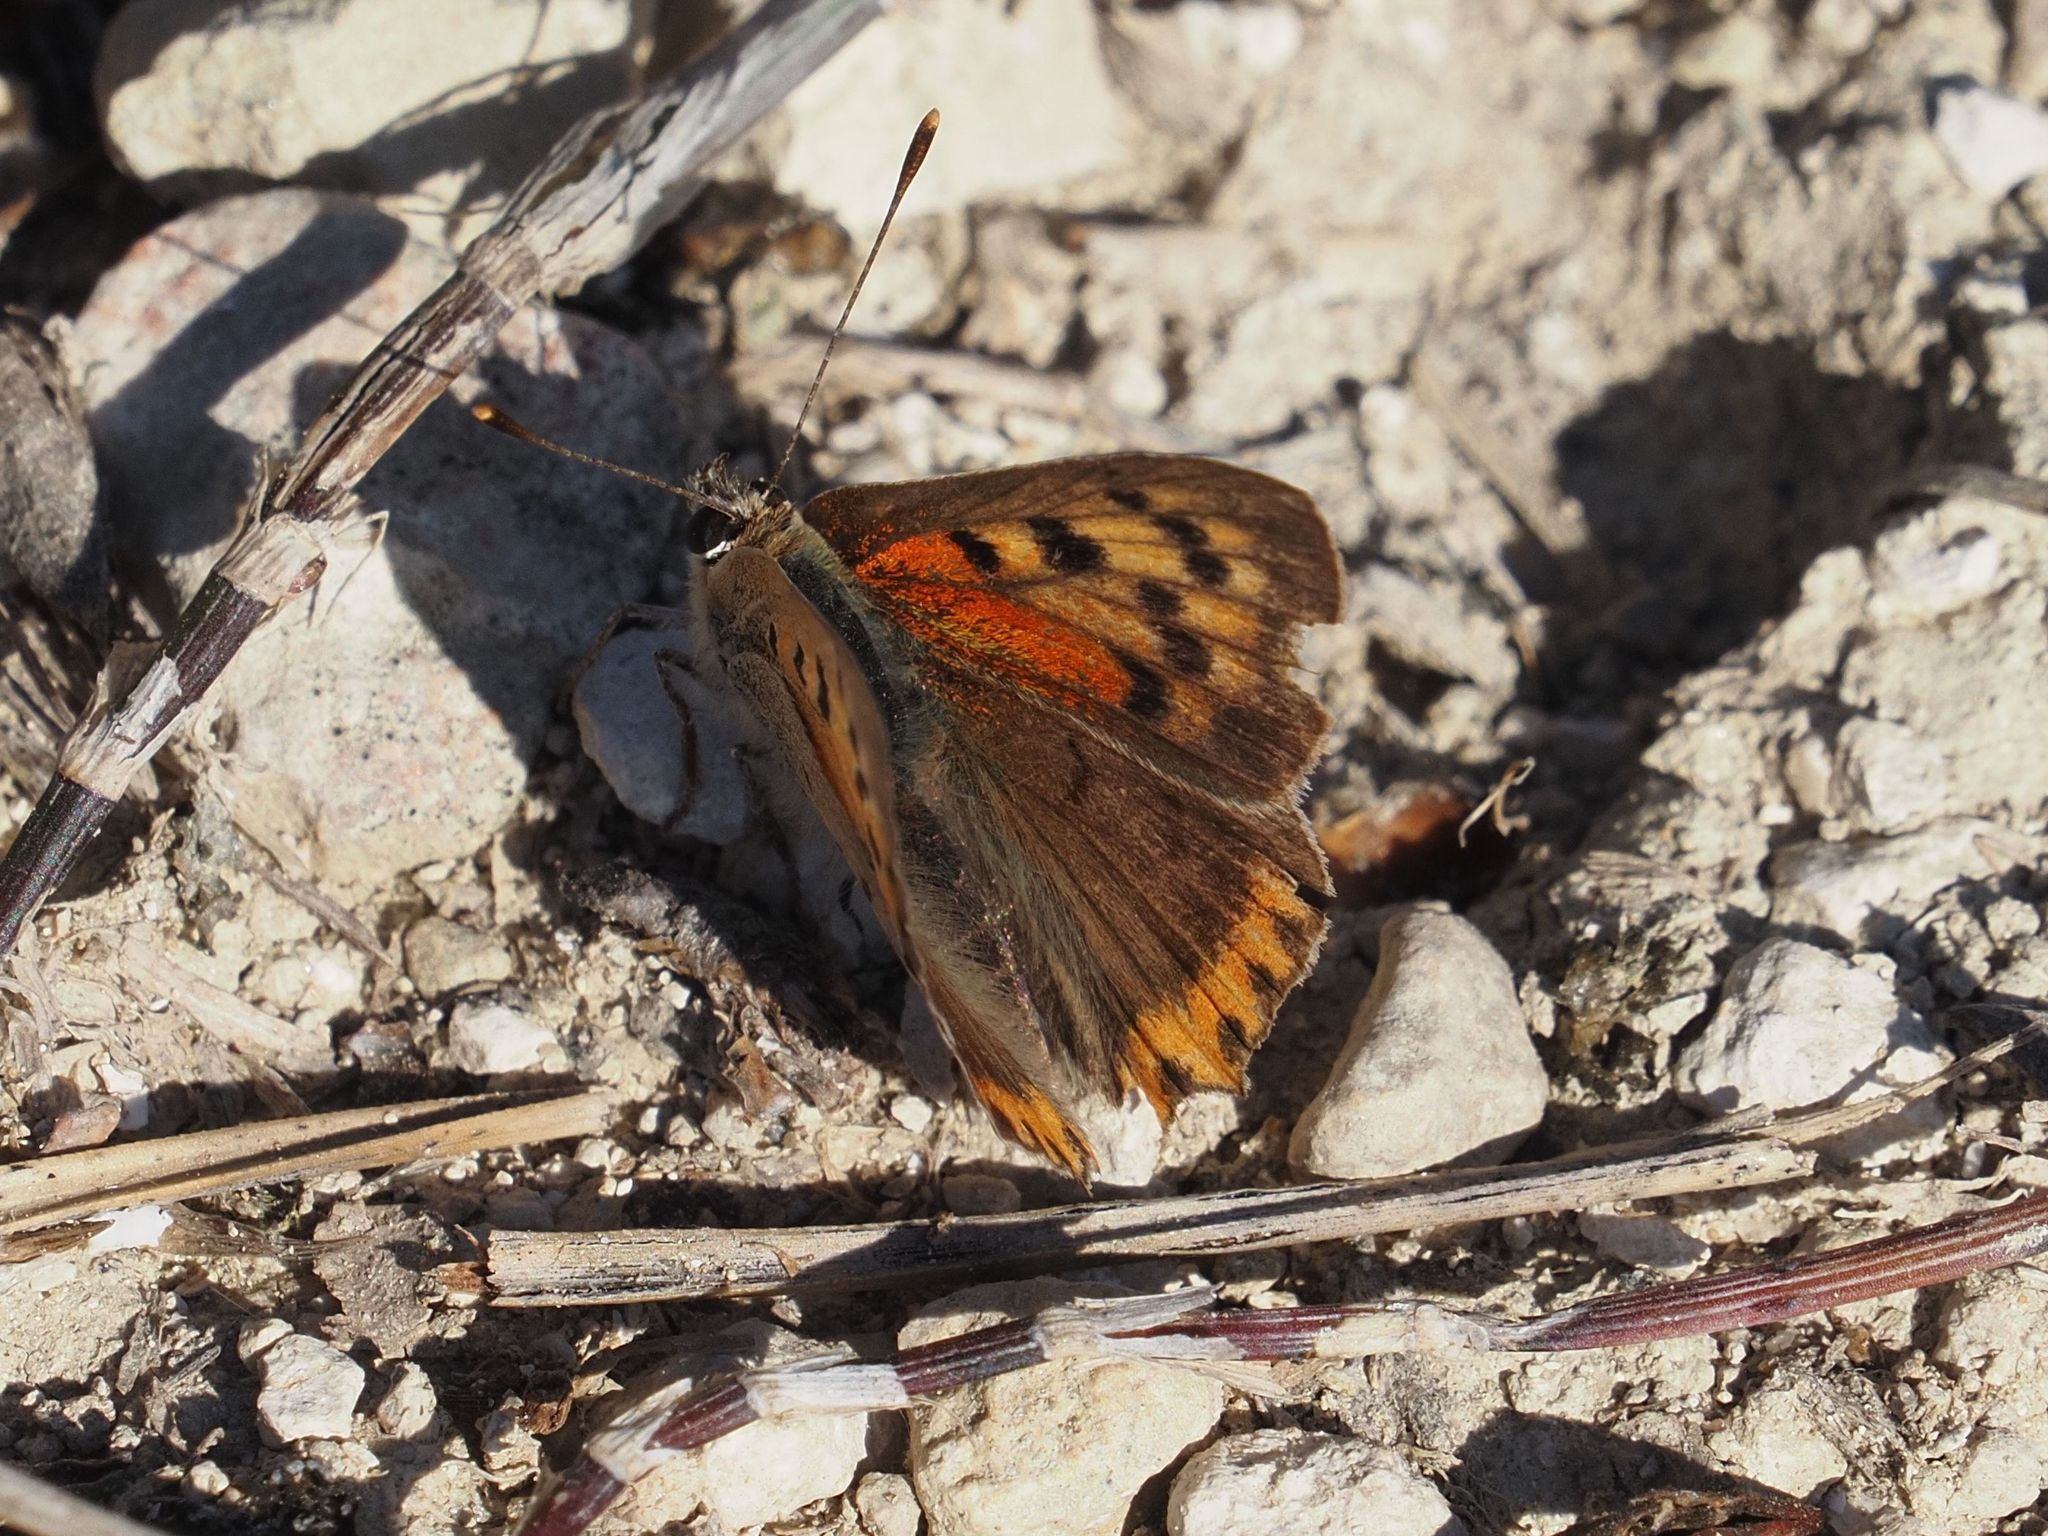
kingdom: Animalia
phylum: Arthropoda
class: Insecta
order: Lepidoptera
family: Lycaenidae
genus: Lycaena
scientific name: Lycaena phlaeas
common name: Small copper
